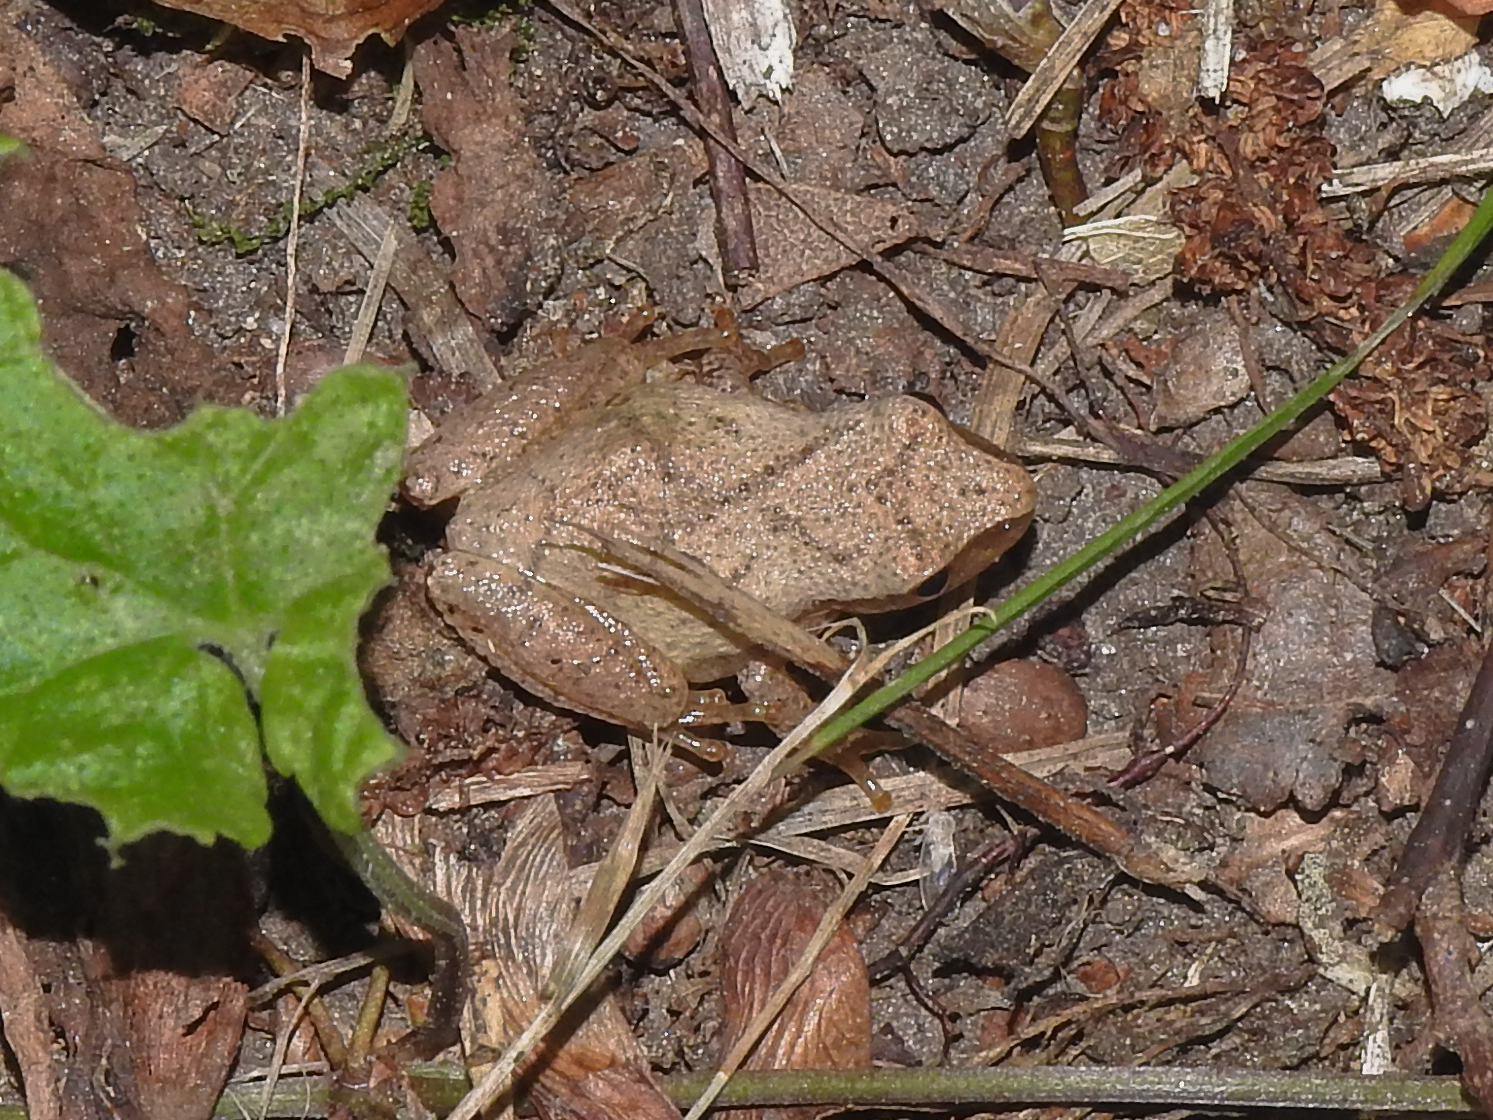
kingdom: Animalia
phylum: Chordata
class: Amphibia
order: Anura
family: Hylidae
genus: Pseudacris
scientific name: Pseudacris crucifer
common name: Spring peeper
